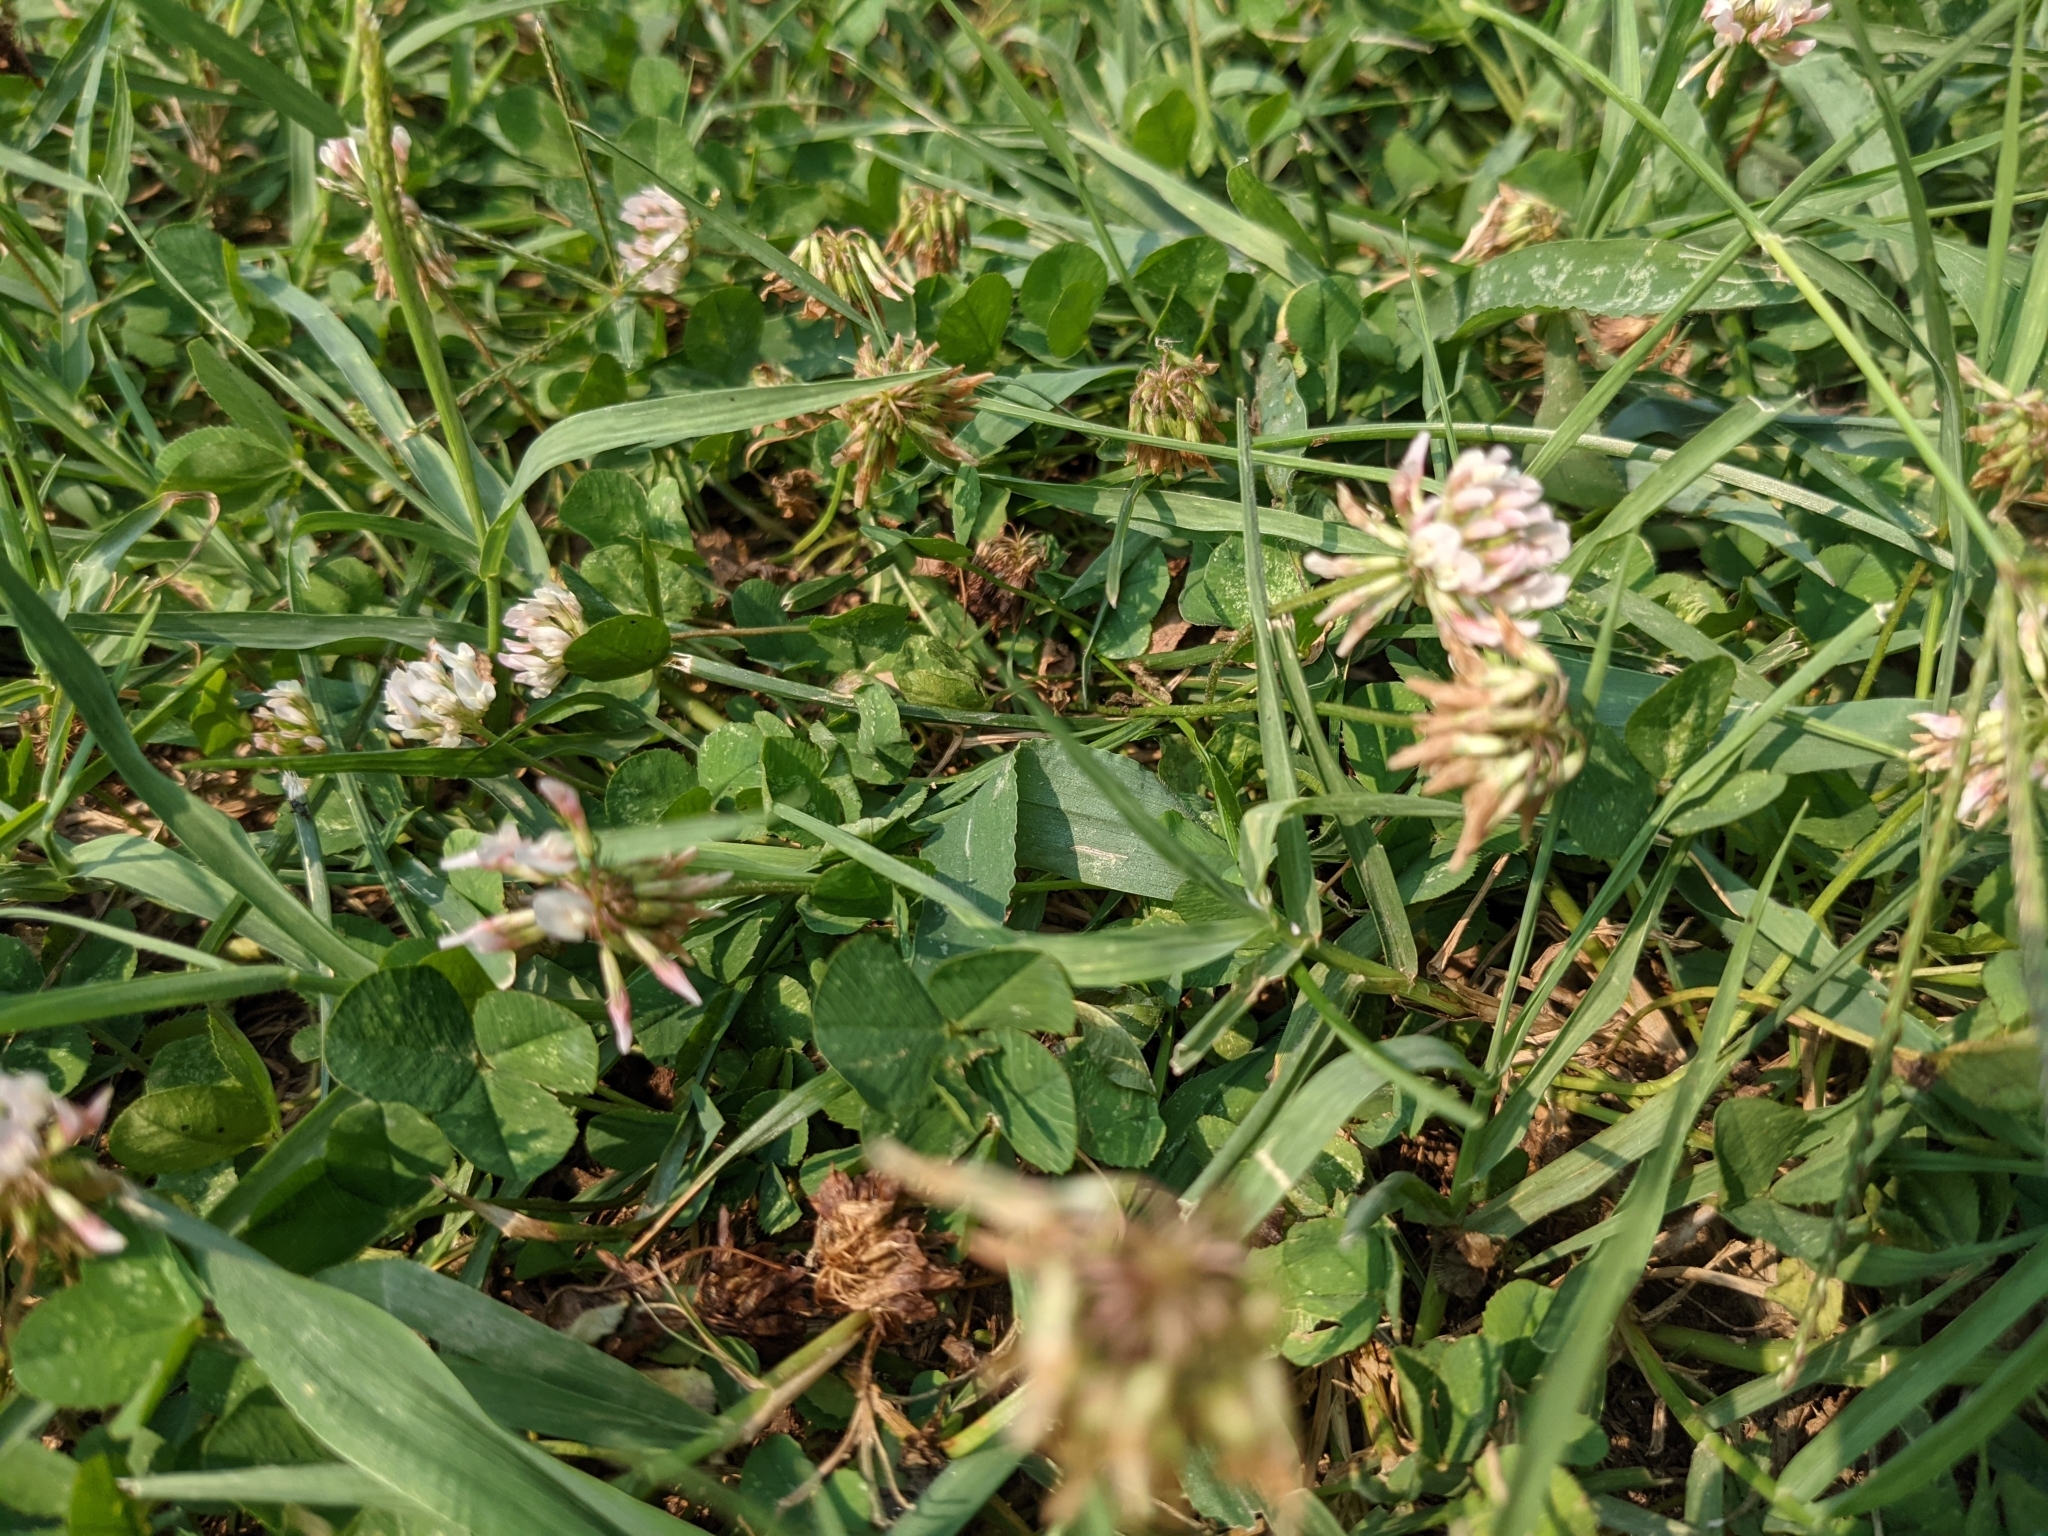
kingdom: Plantae
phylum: Tracheophyta
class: Magnoliopsida
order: Fabales
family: Fabaceae
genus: Trifolium
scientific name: Trifolium repens
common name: White clover
